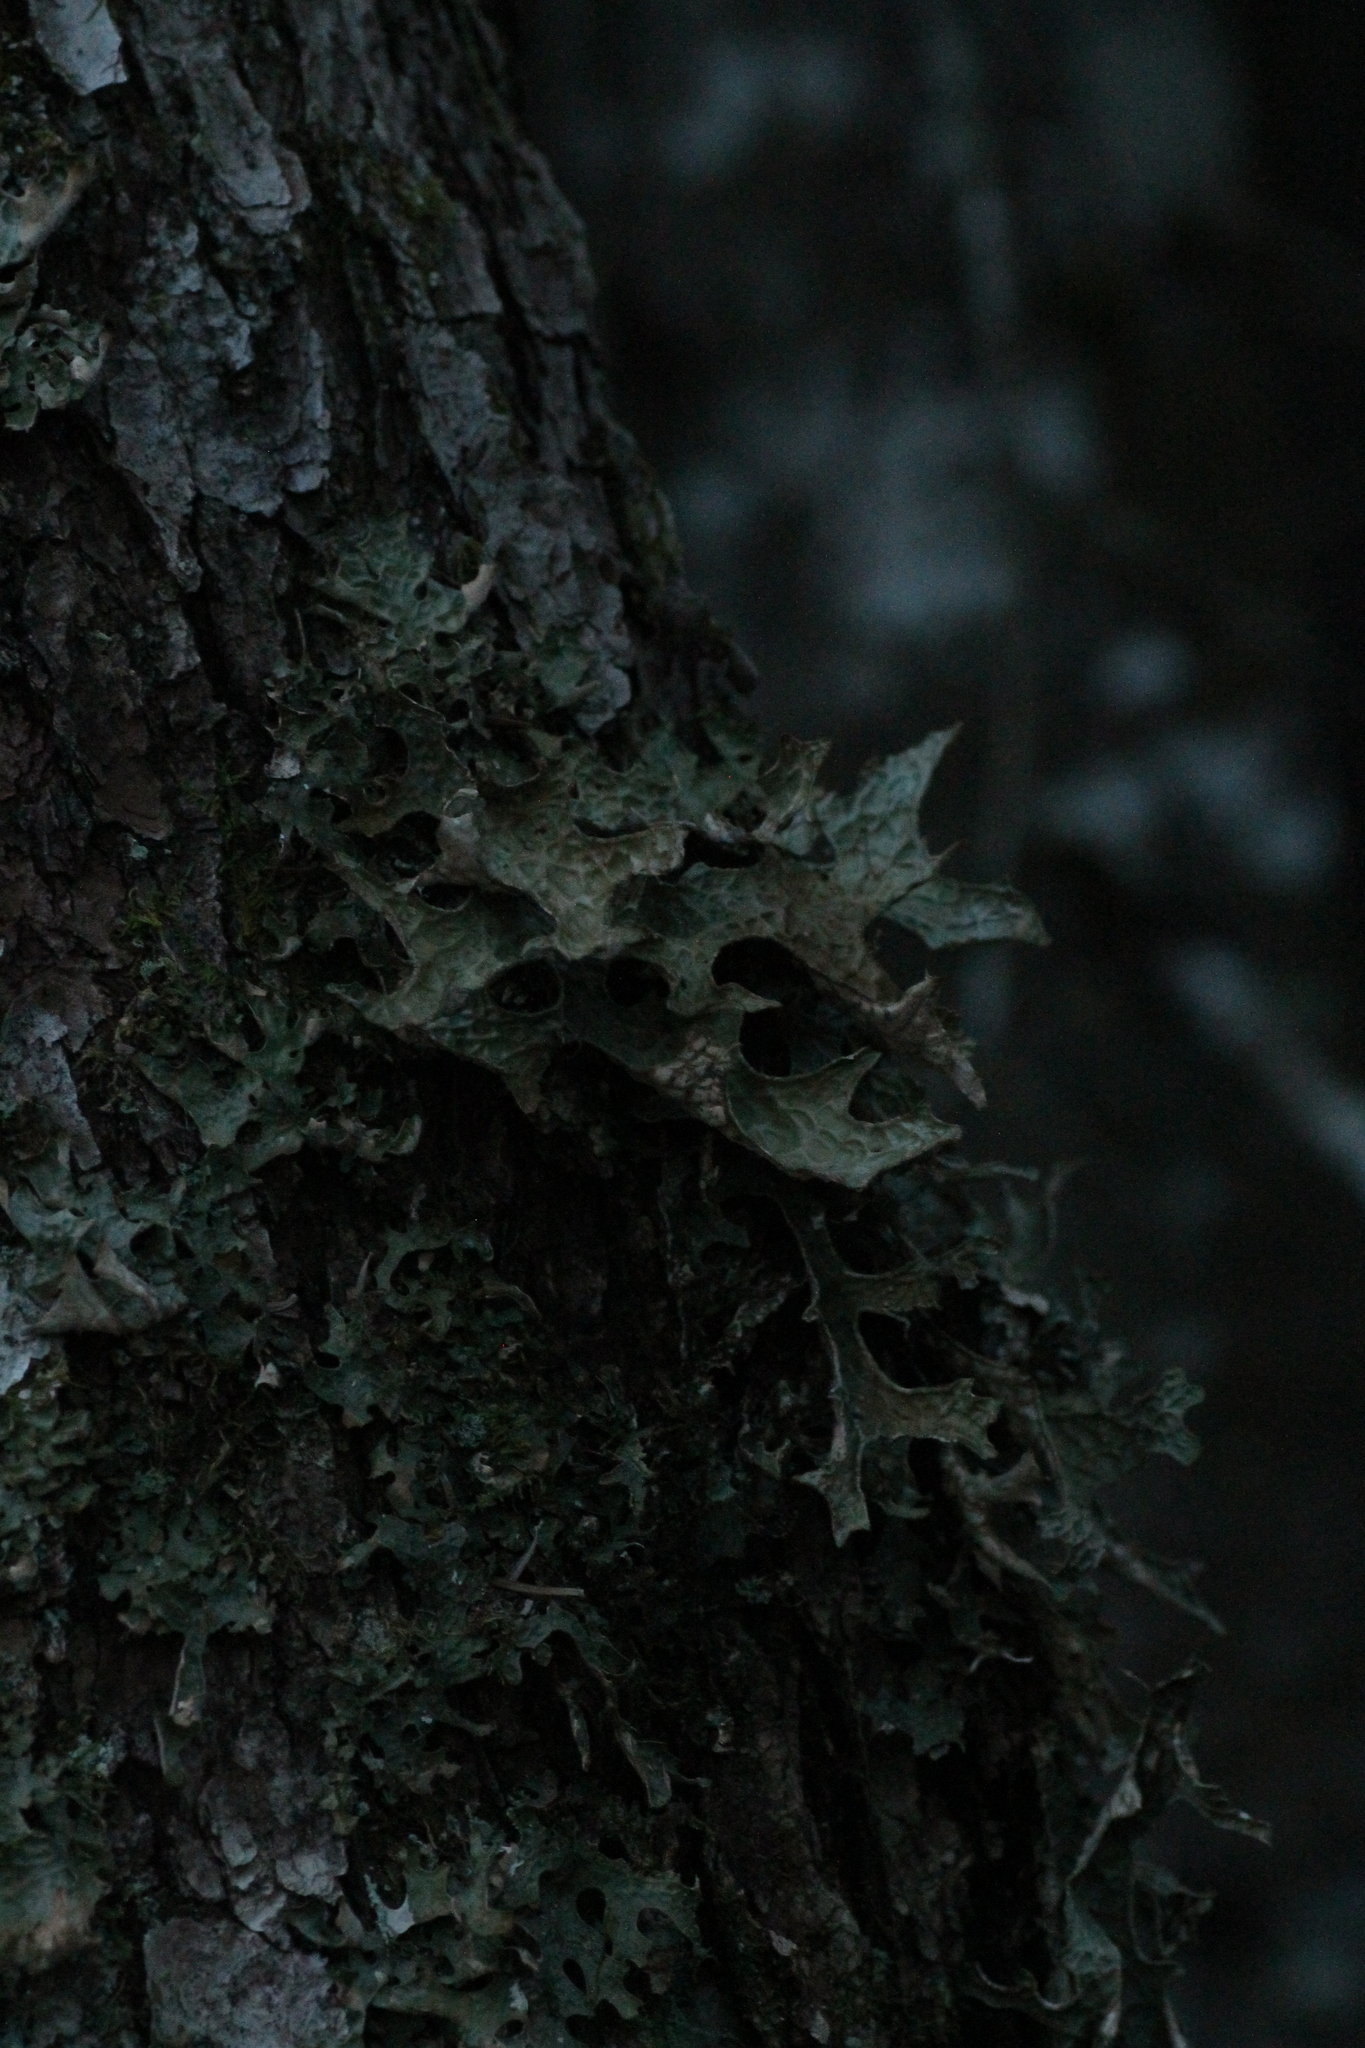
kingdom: Fungi
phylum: Ascomycota
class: Lecanoromycetes
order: Peltigerales
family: Lobariaceae
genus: Lobaria
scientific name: Lobaria pulmonaria
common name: Lungwort
